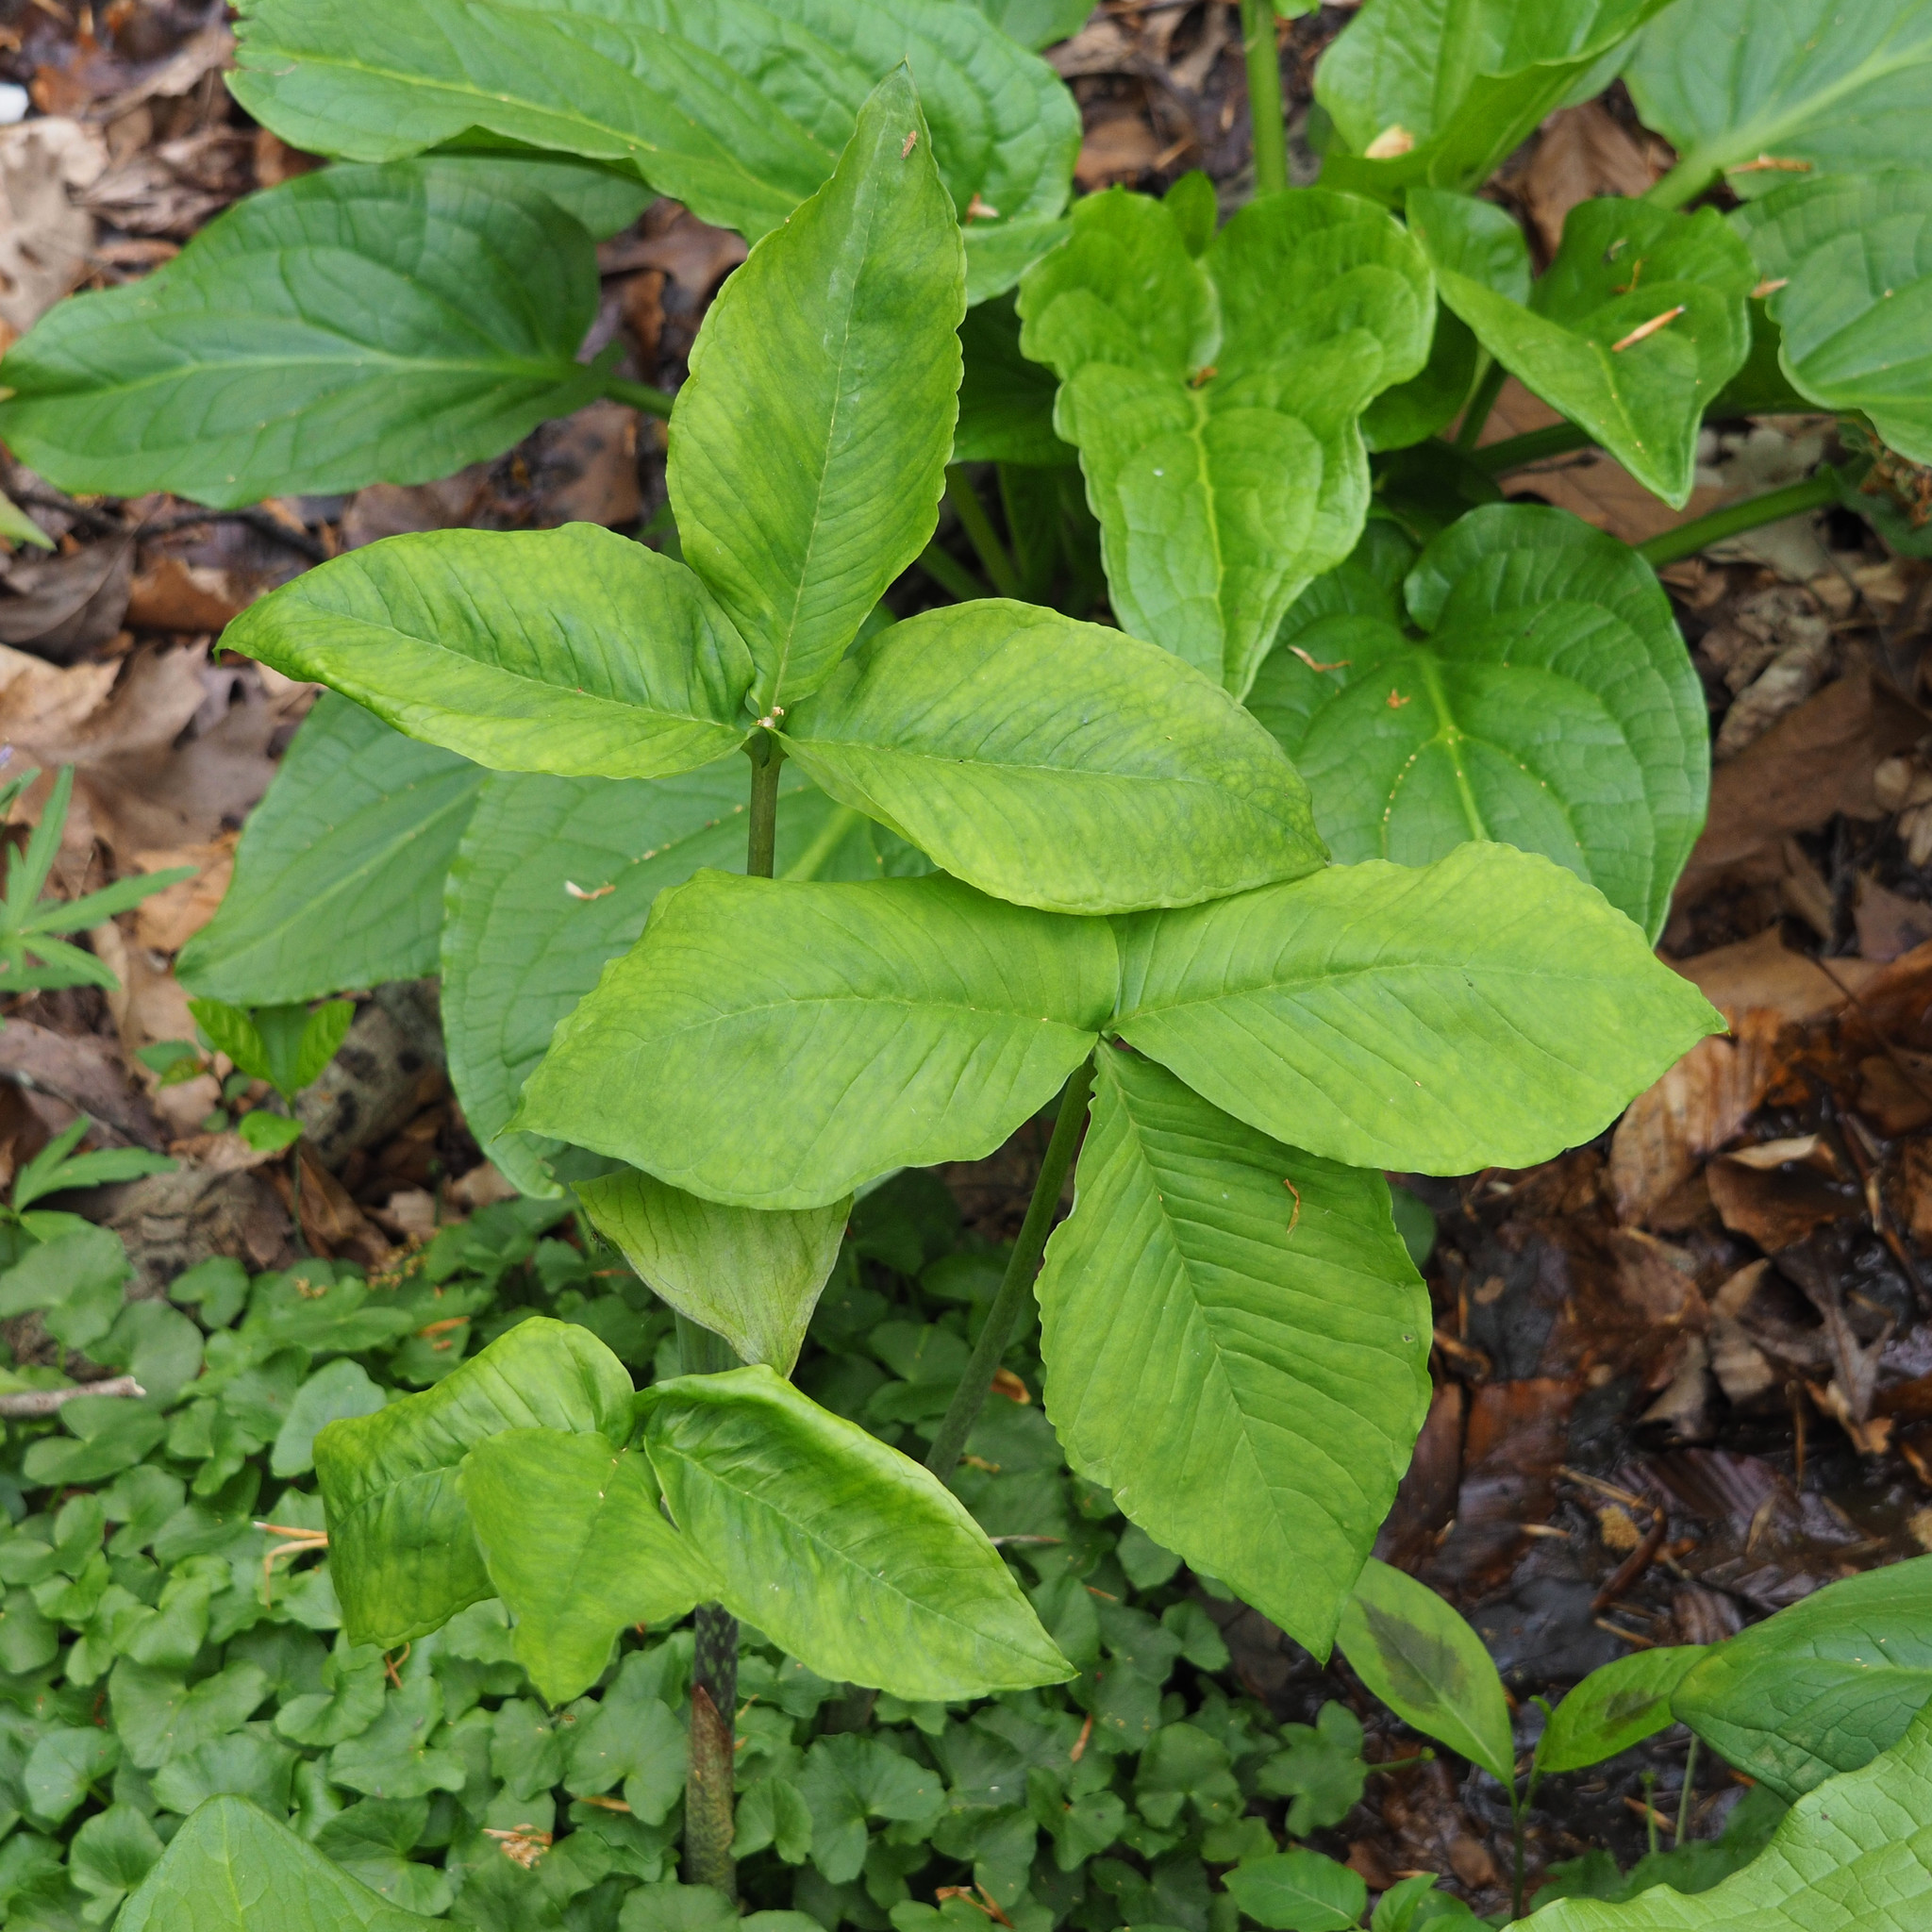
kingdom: Plantae
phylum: Tracheophyta
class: Liliopsida
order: Alismatales
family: Araceae
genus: Arisaema
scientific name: Arisaema triphyllum
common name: Jack-in-the-pulpit
